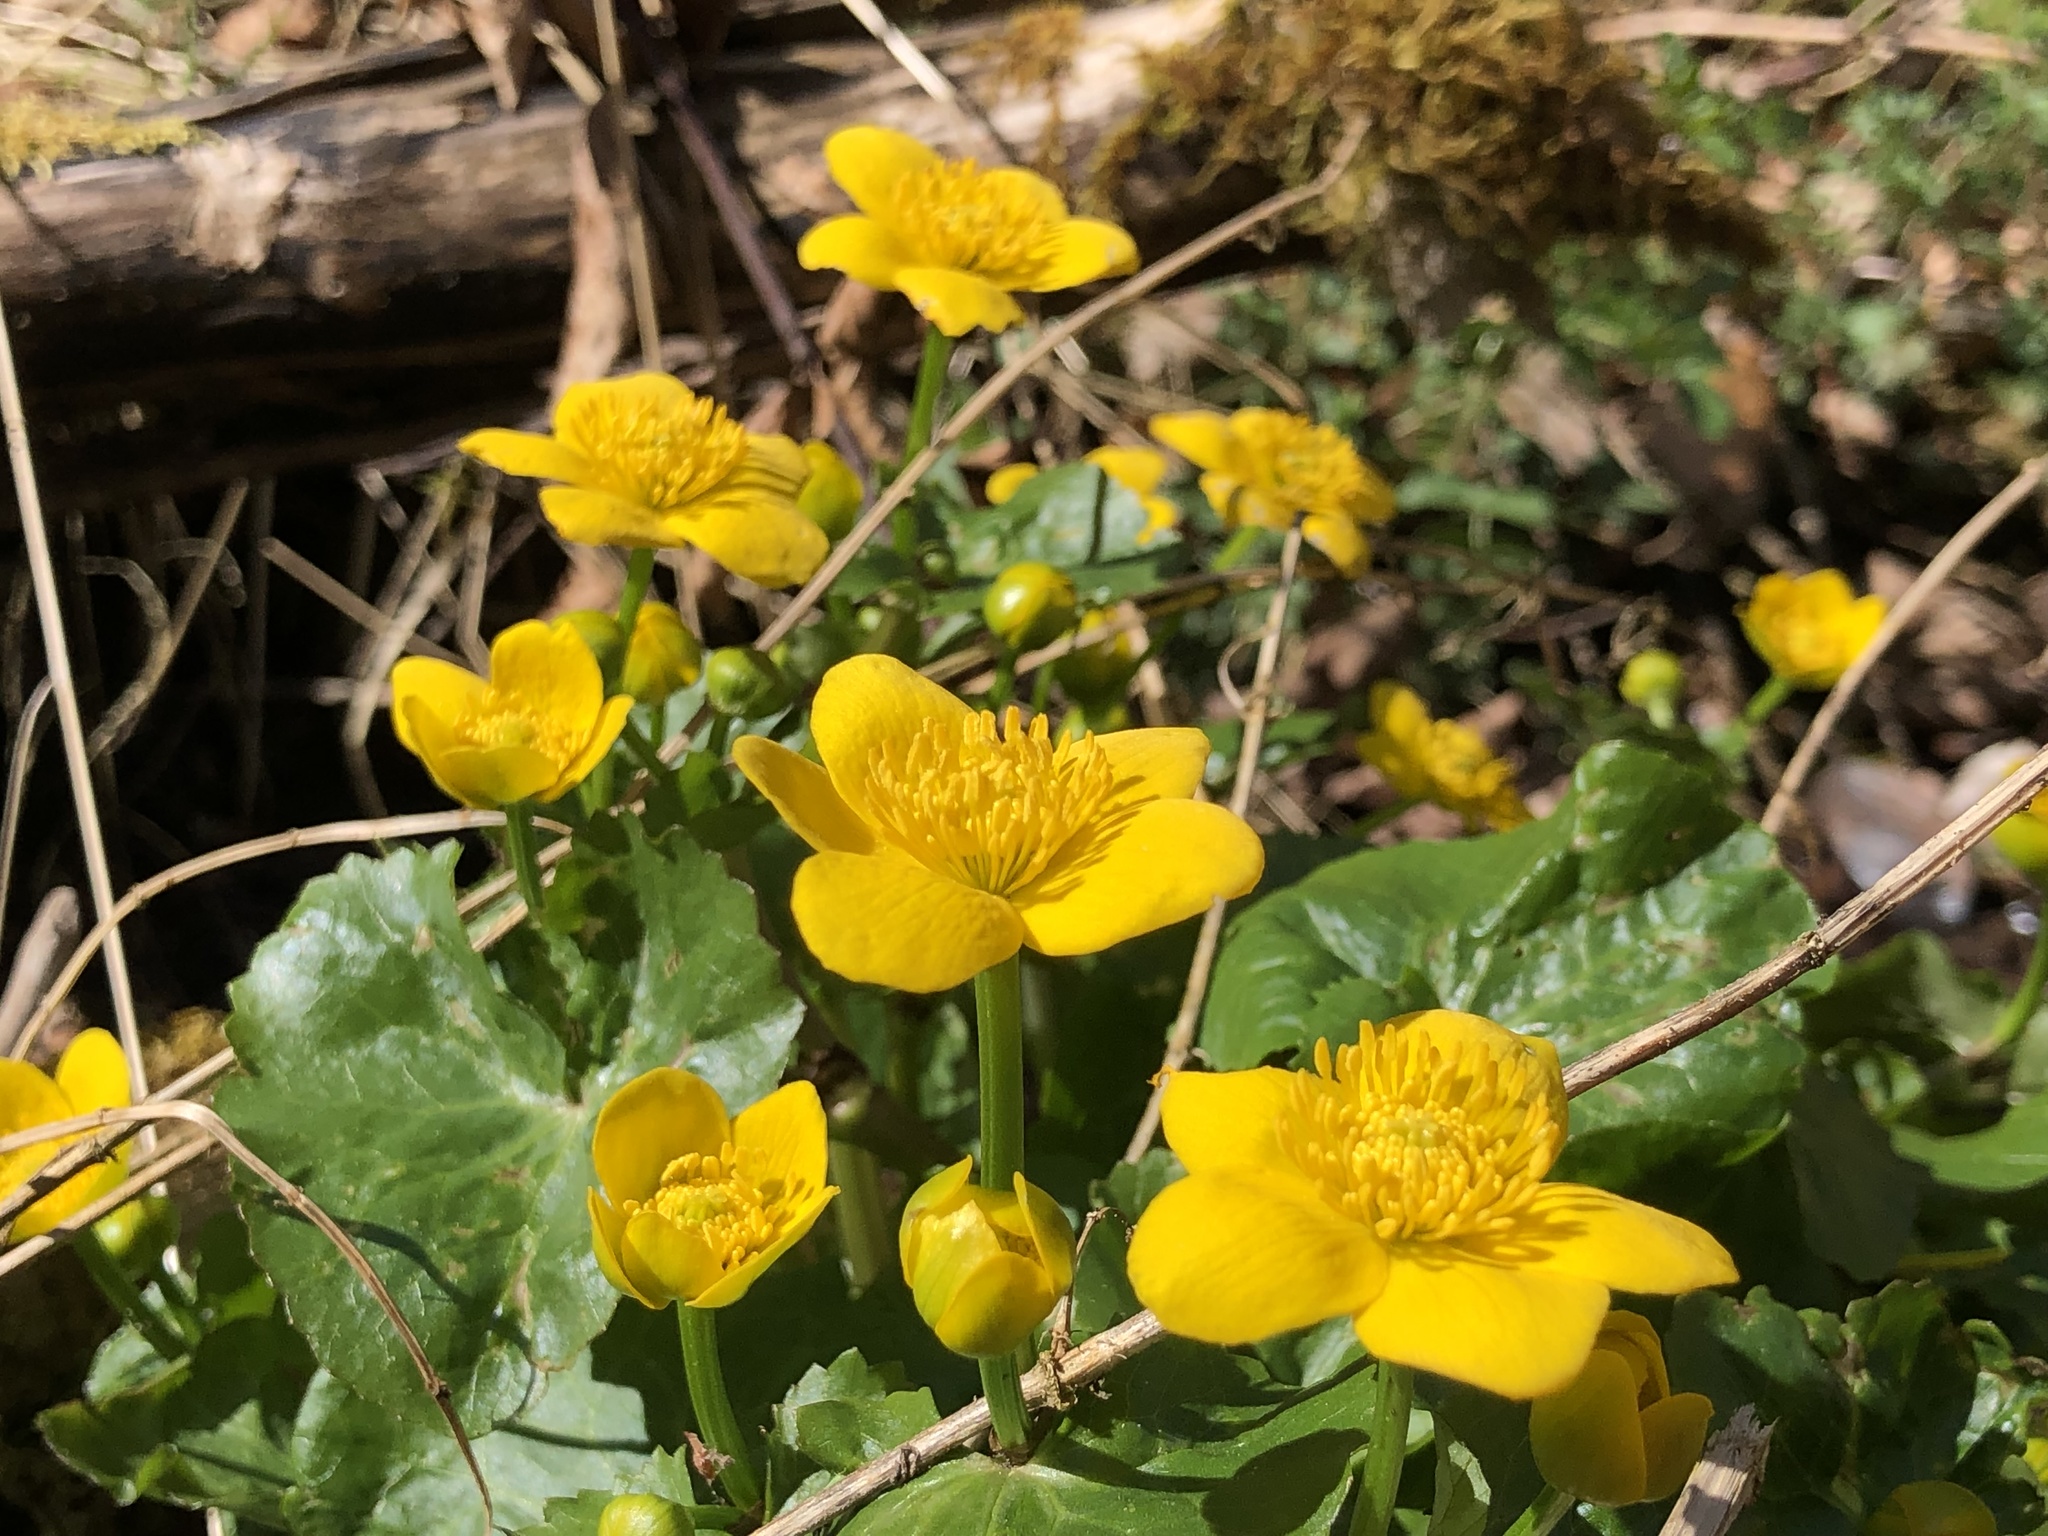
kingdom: Plantae
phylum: Tracheophyta
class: Magnoliopsida
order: Ranunculales
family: Ranunculaceae
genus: Caltha
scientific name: Caltha palustris
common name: Marsh marigold
